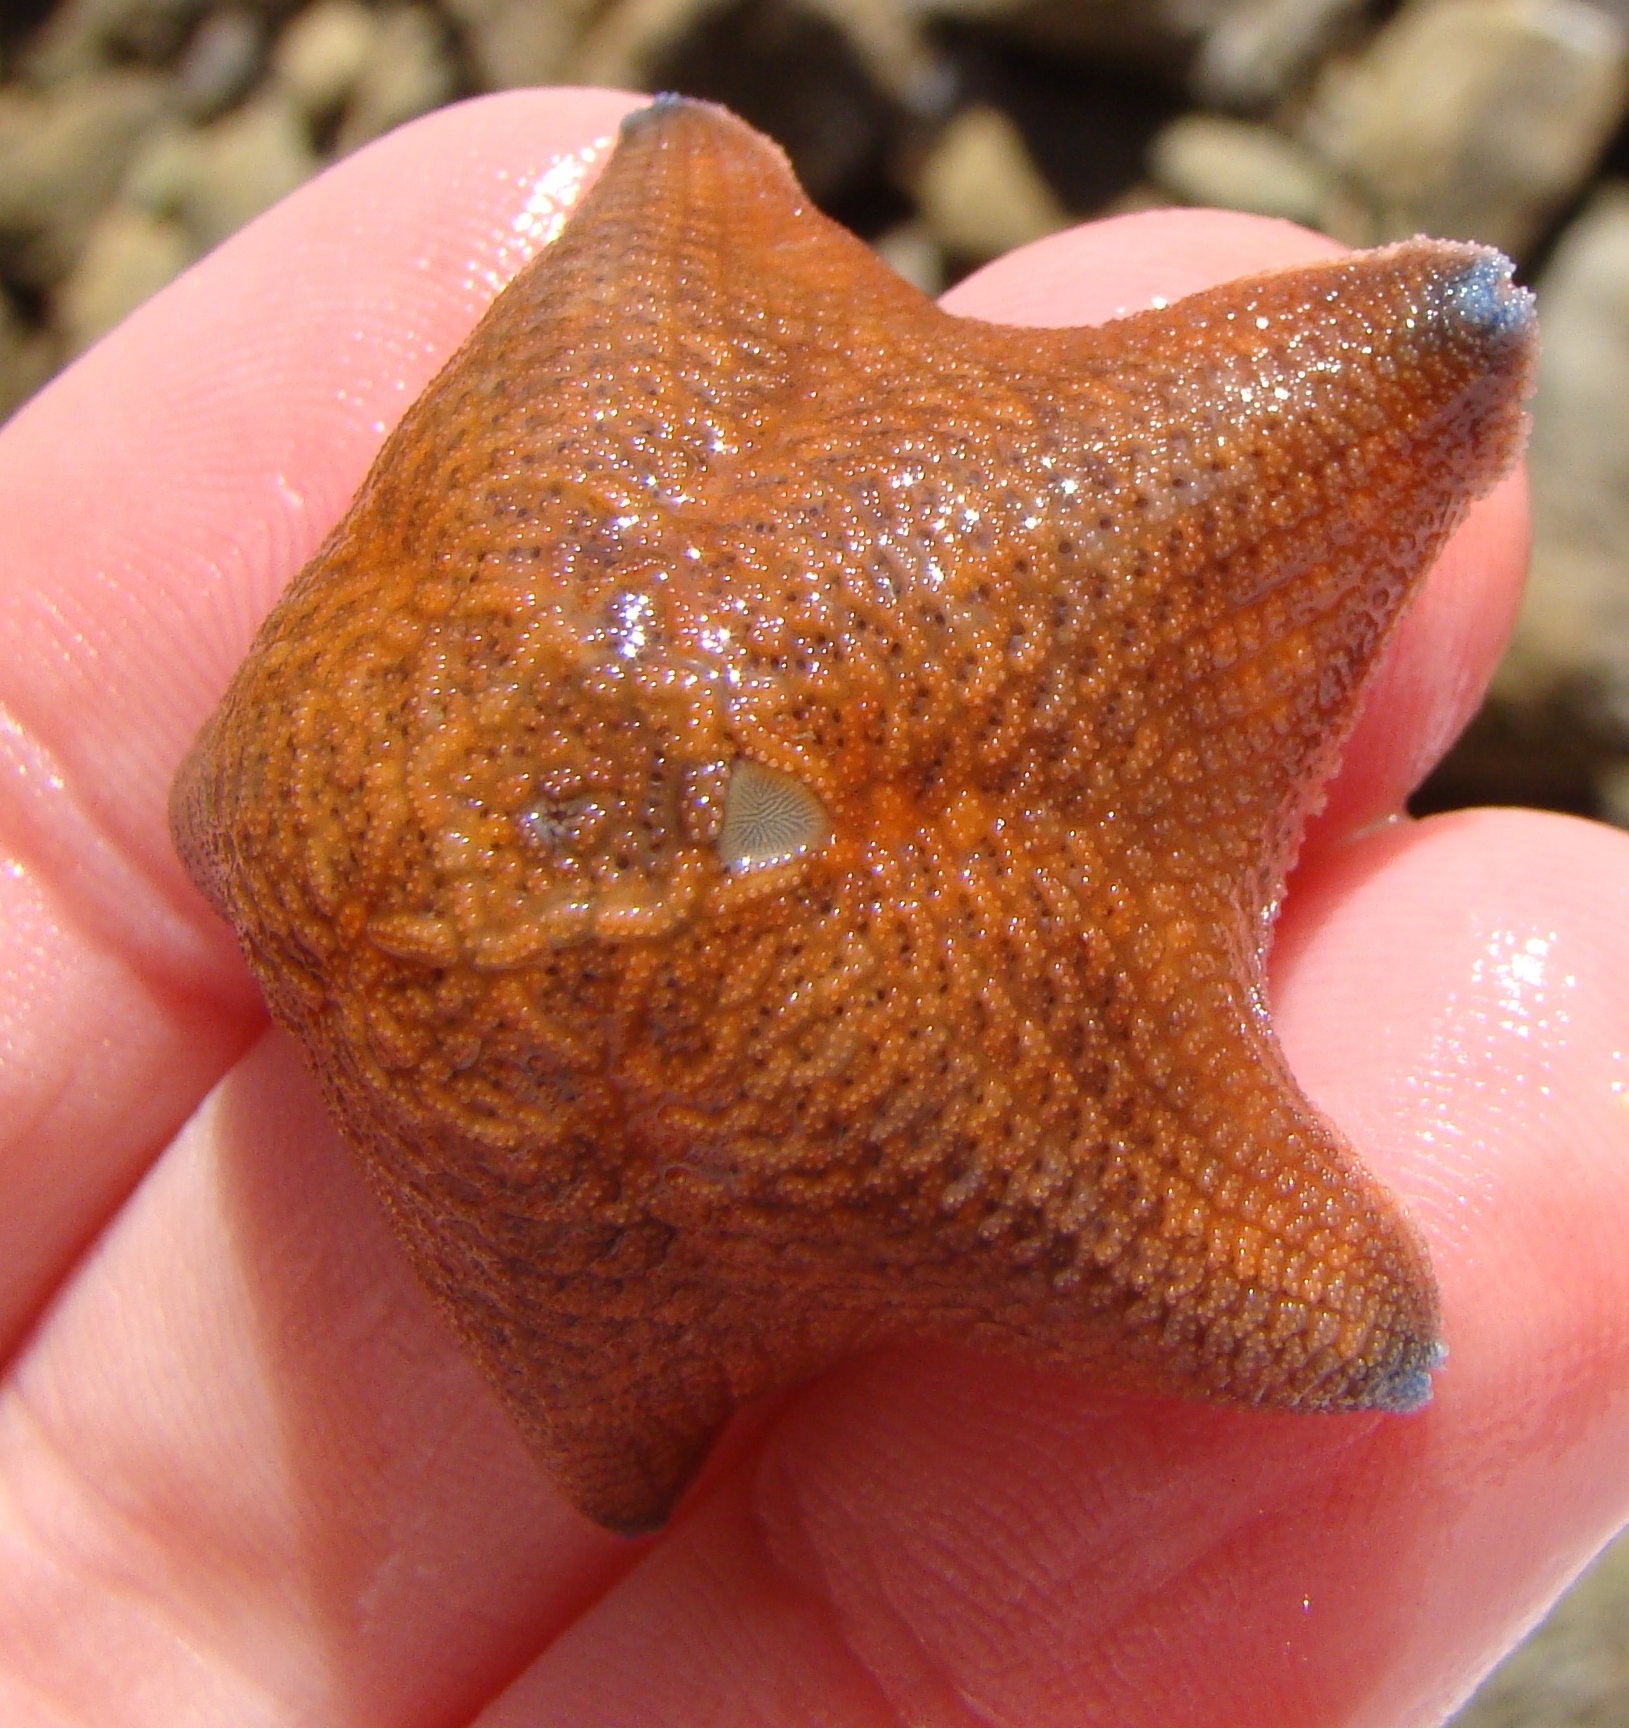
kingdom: Animalia
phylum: Echinodermata
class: Asteroidea
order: Valvatida
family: Asterinidae
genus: Patiriella
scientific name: Patiriella regularis
